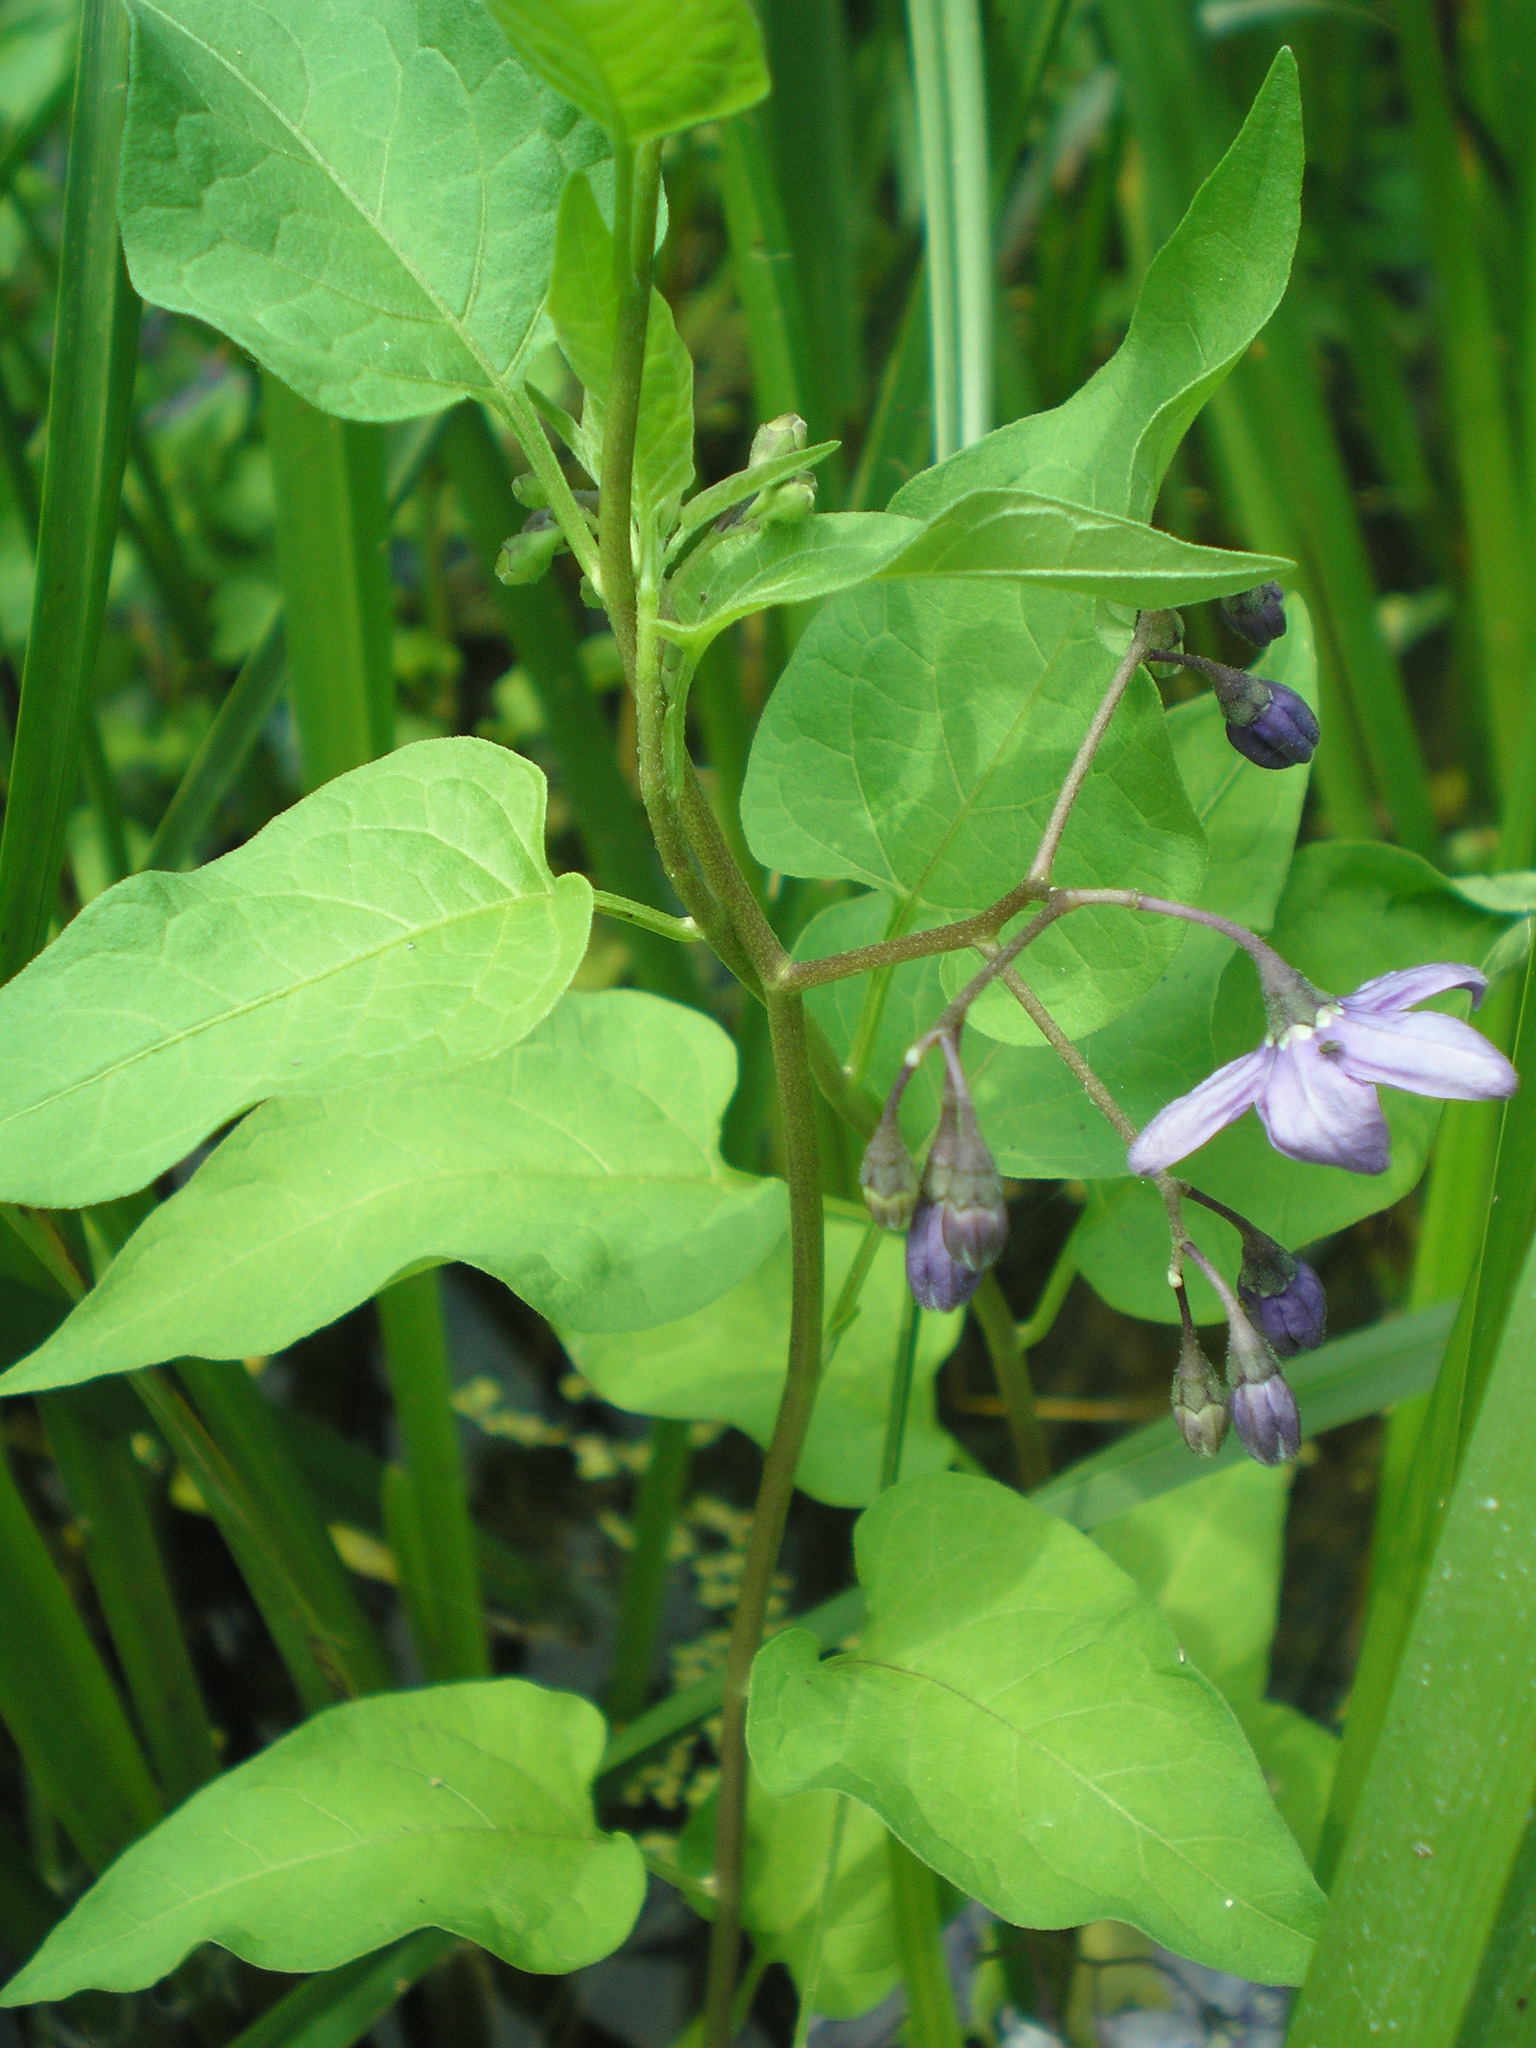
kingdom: Plantae
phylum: Tracheophyta
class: Magnoliopsida
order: Solanales
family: Solanaceae
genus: Solanum
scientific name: Solanum dulcamara
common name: Climbing nightshade
